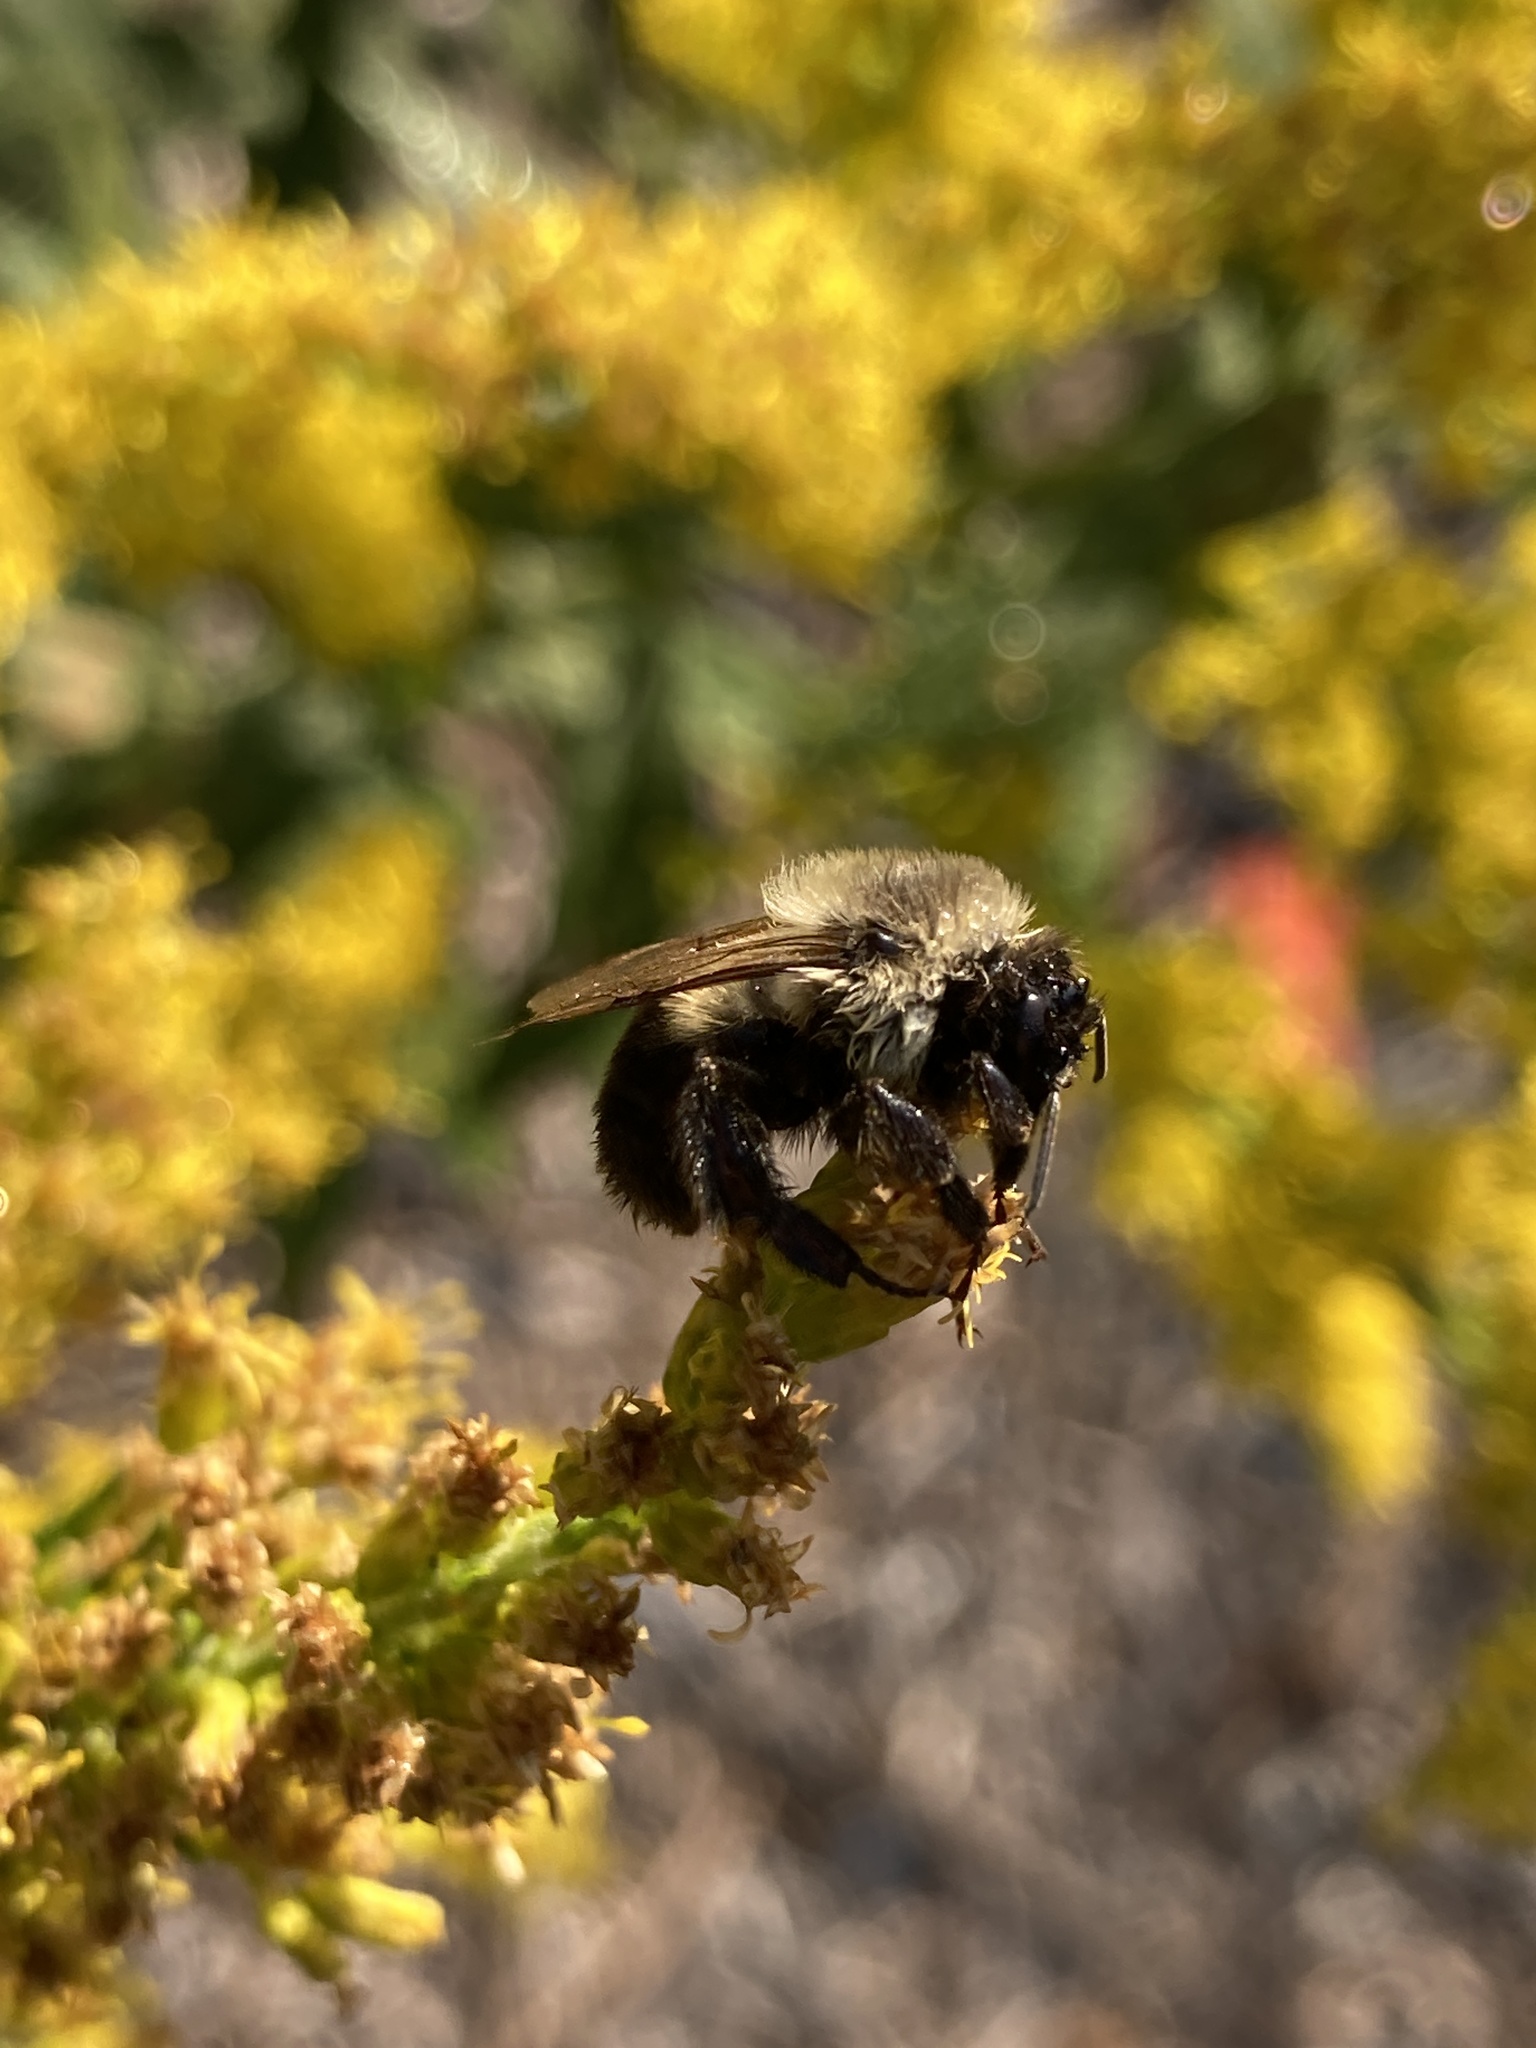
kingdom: Animalia
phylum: Arthropoda
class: Insecta
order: Hymenoptera
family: Apidae
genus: Bombus
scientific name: Bombus impatiens
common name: Common eastern bumble bee
